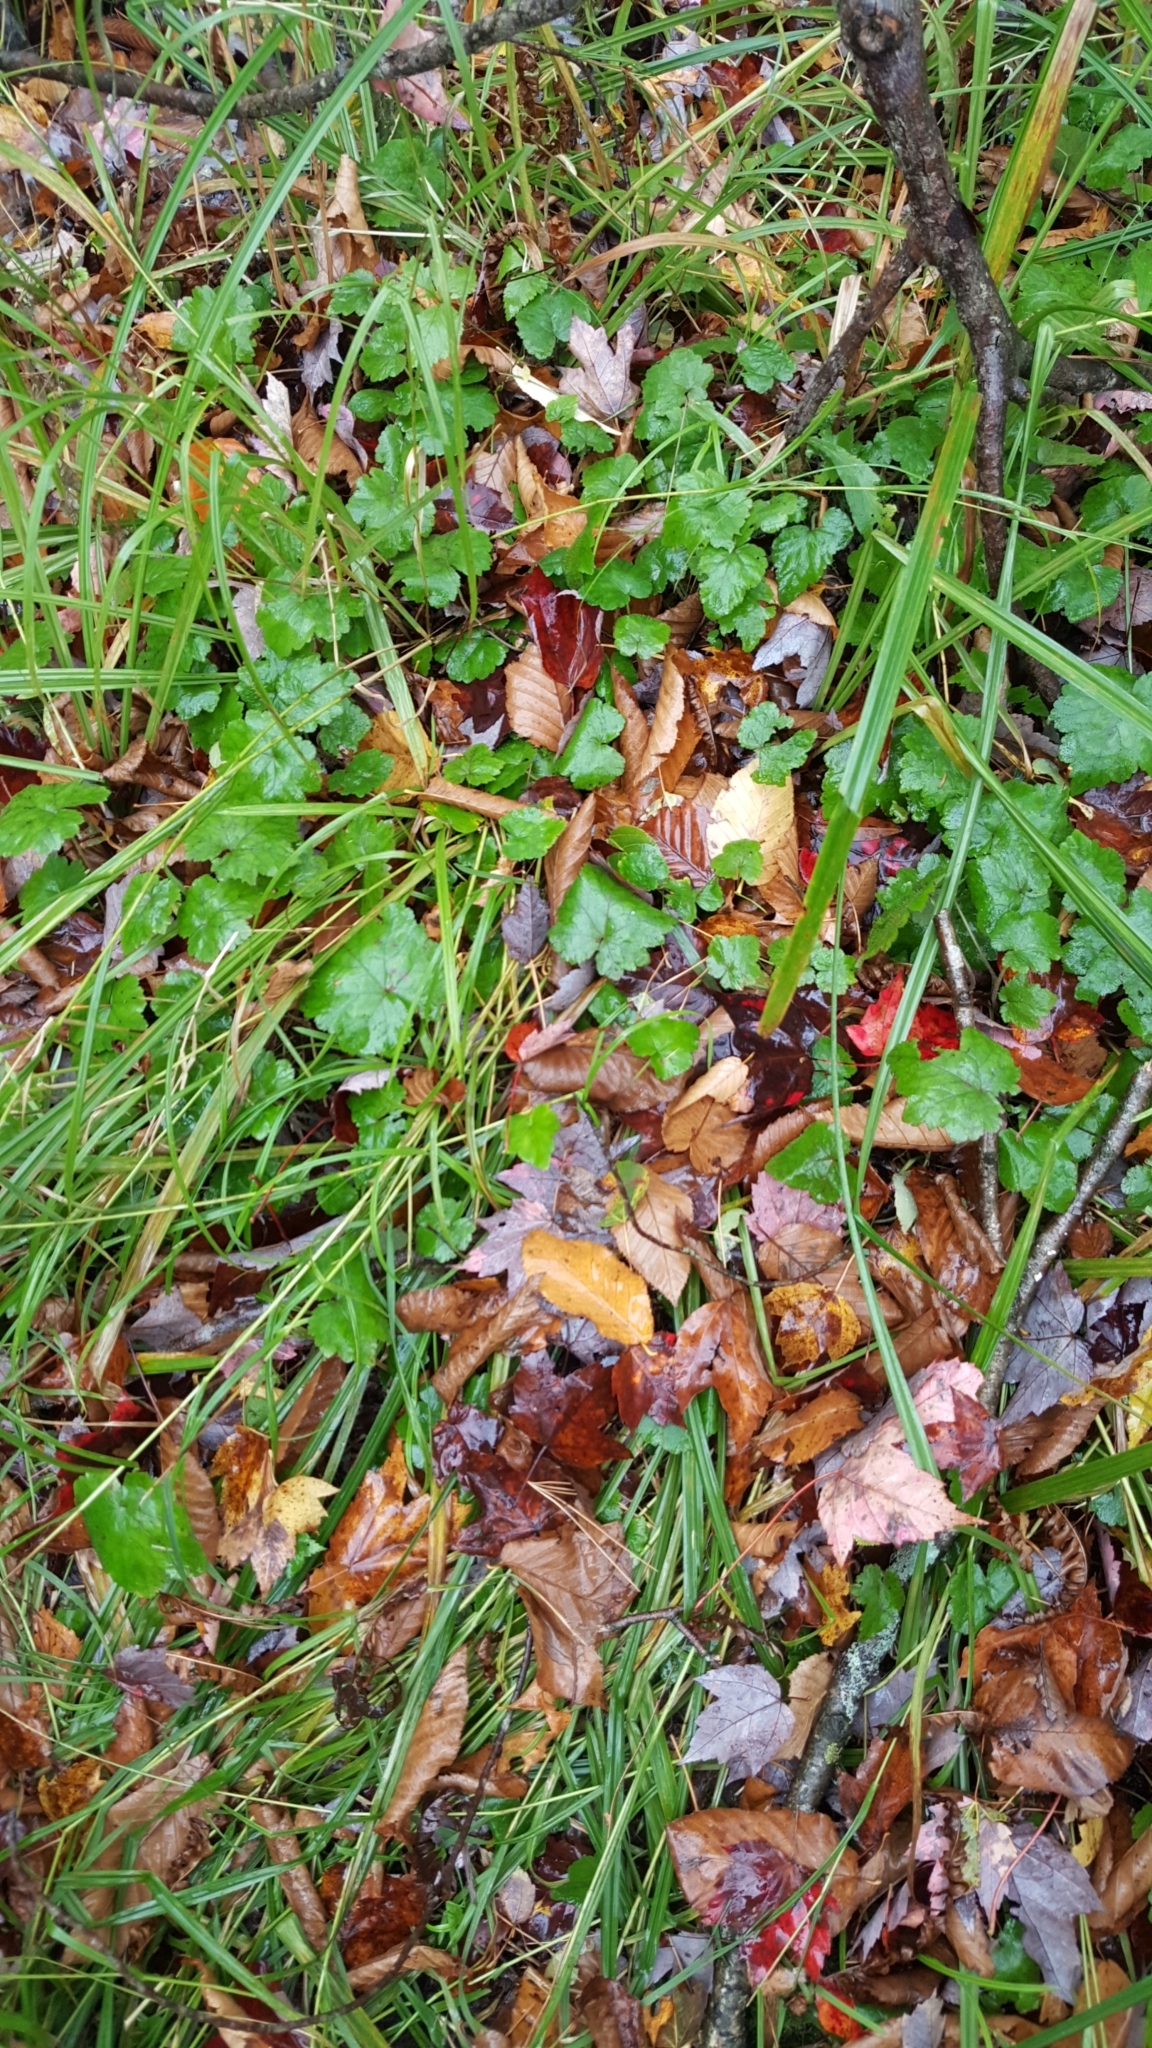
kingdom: Plantae
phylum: Tracheophyta
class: Magnoliopsida
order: Saxifragales
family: Saxifragaceae
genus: Tiarella
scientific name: Tiarella stolonifera
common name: Stoloniferous foamflower
